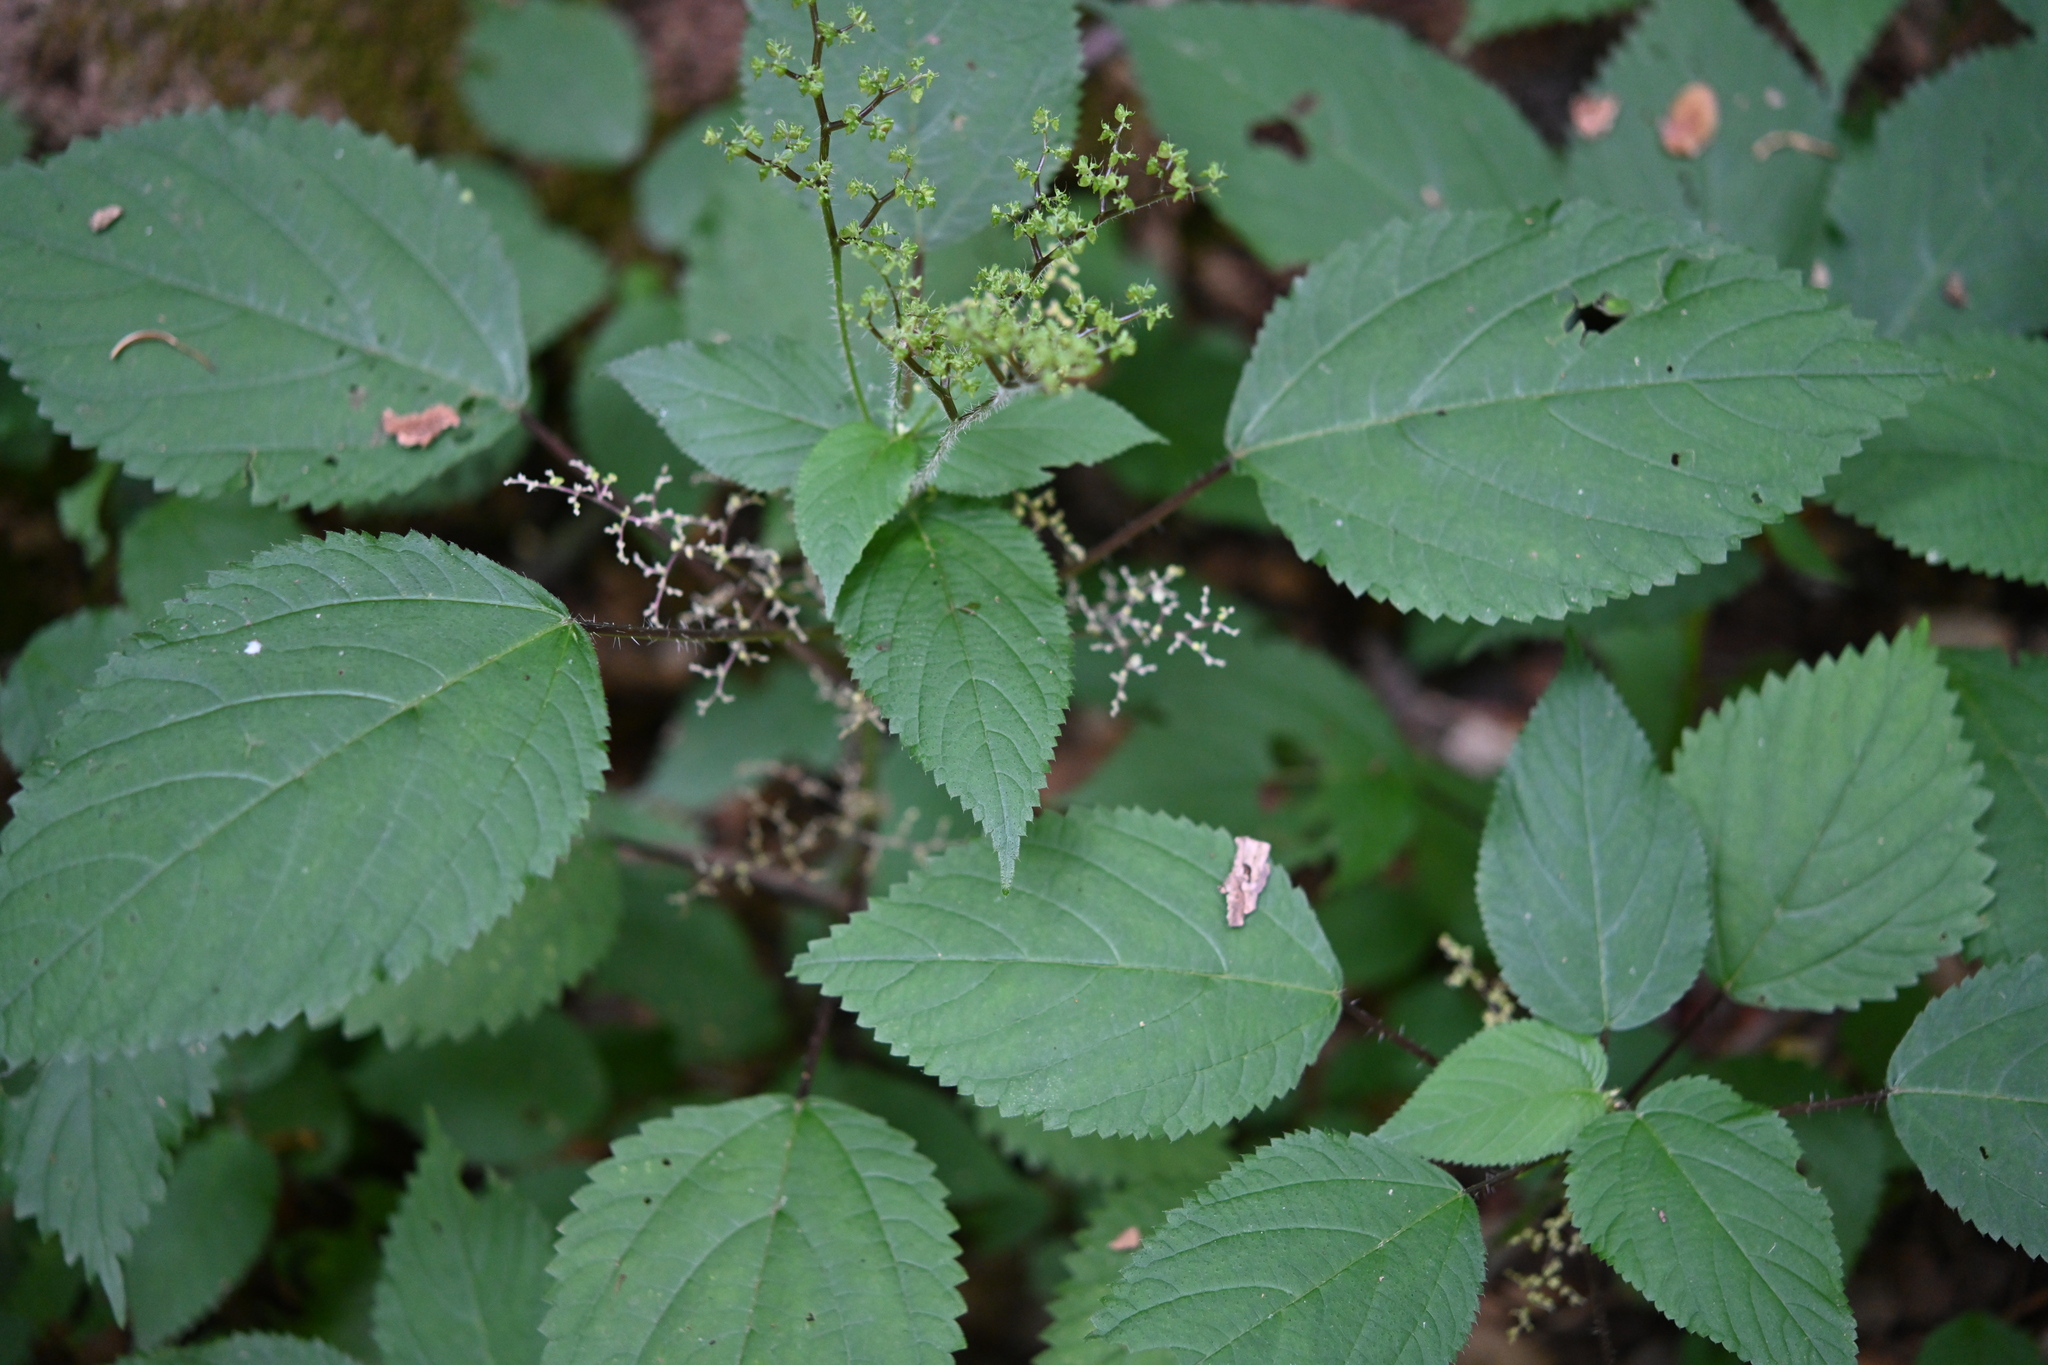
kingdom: Plantae
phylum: Tracheophyta
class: Magnoliopsida
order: Rosales
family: Urticaceae
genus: Laportea
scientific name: Laportea canadensis
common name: Canada nettle
